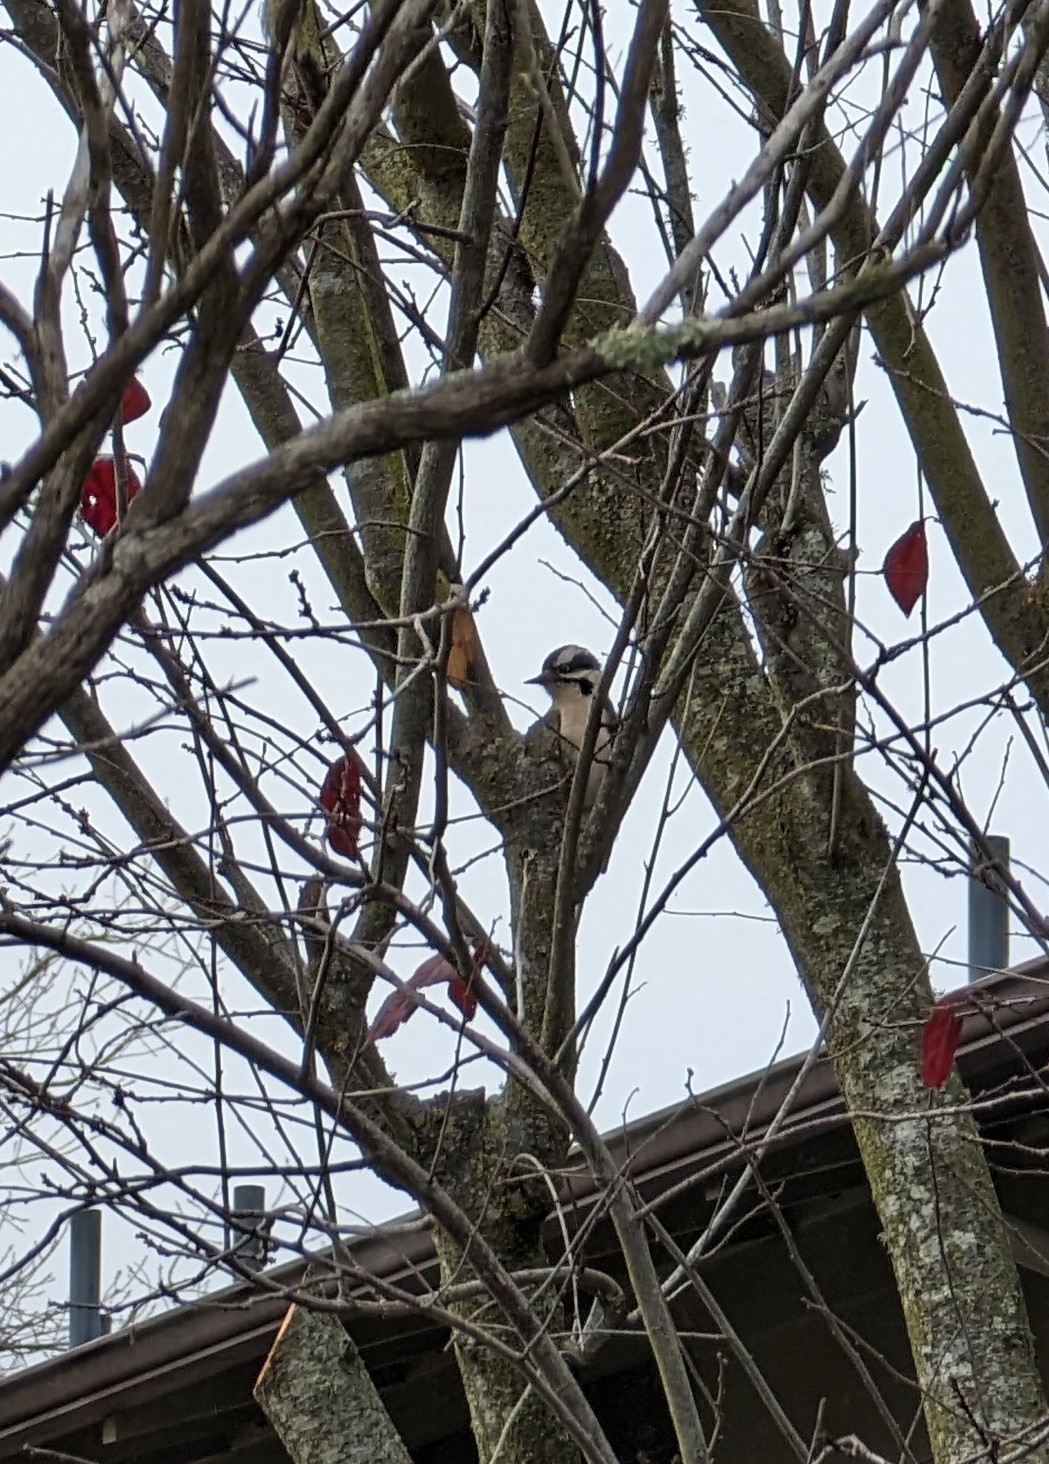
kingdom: Animalia
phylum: Chordata
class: Aves
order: Piciformes
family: Picidae
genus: Dryobates
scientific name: Dryobates pubescens
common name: Downy woodpecker
